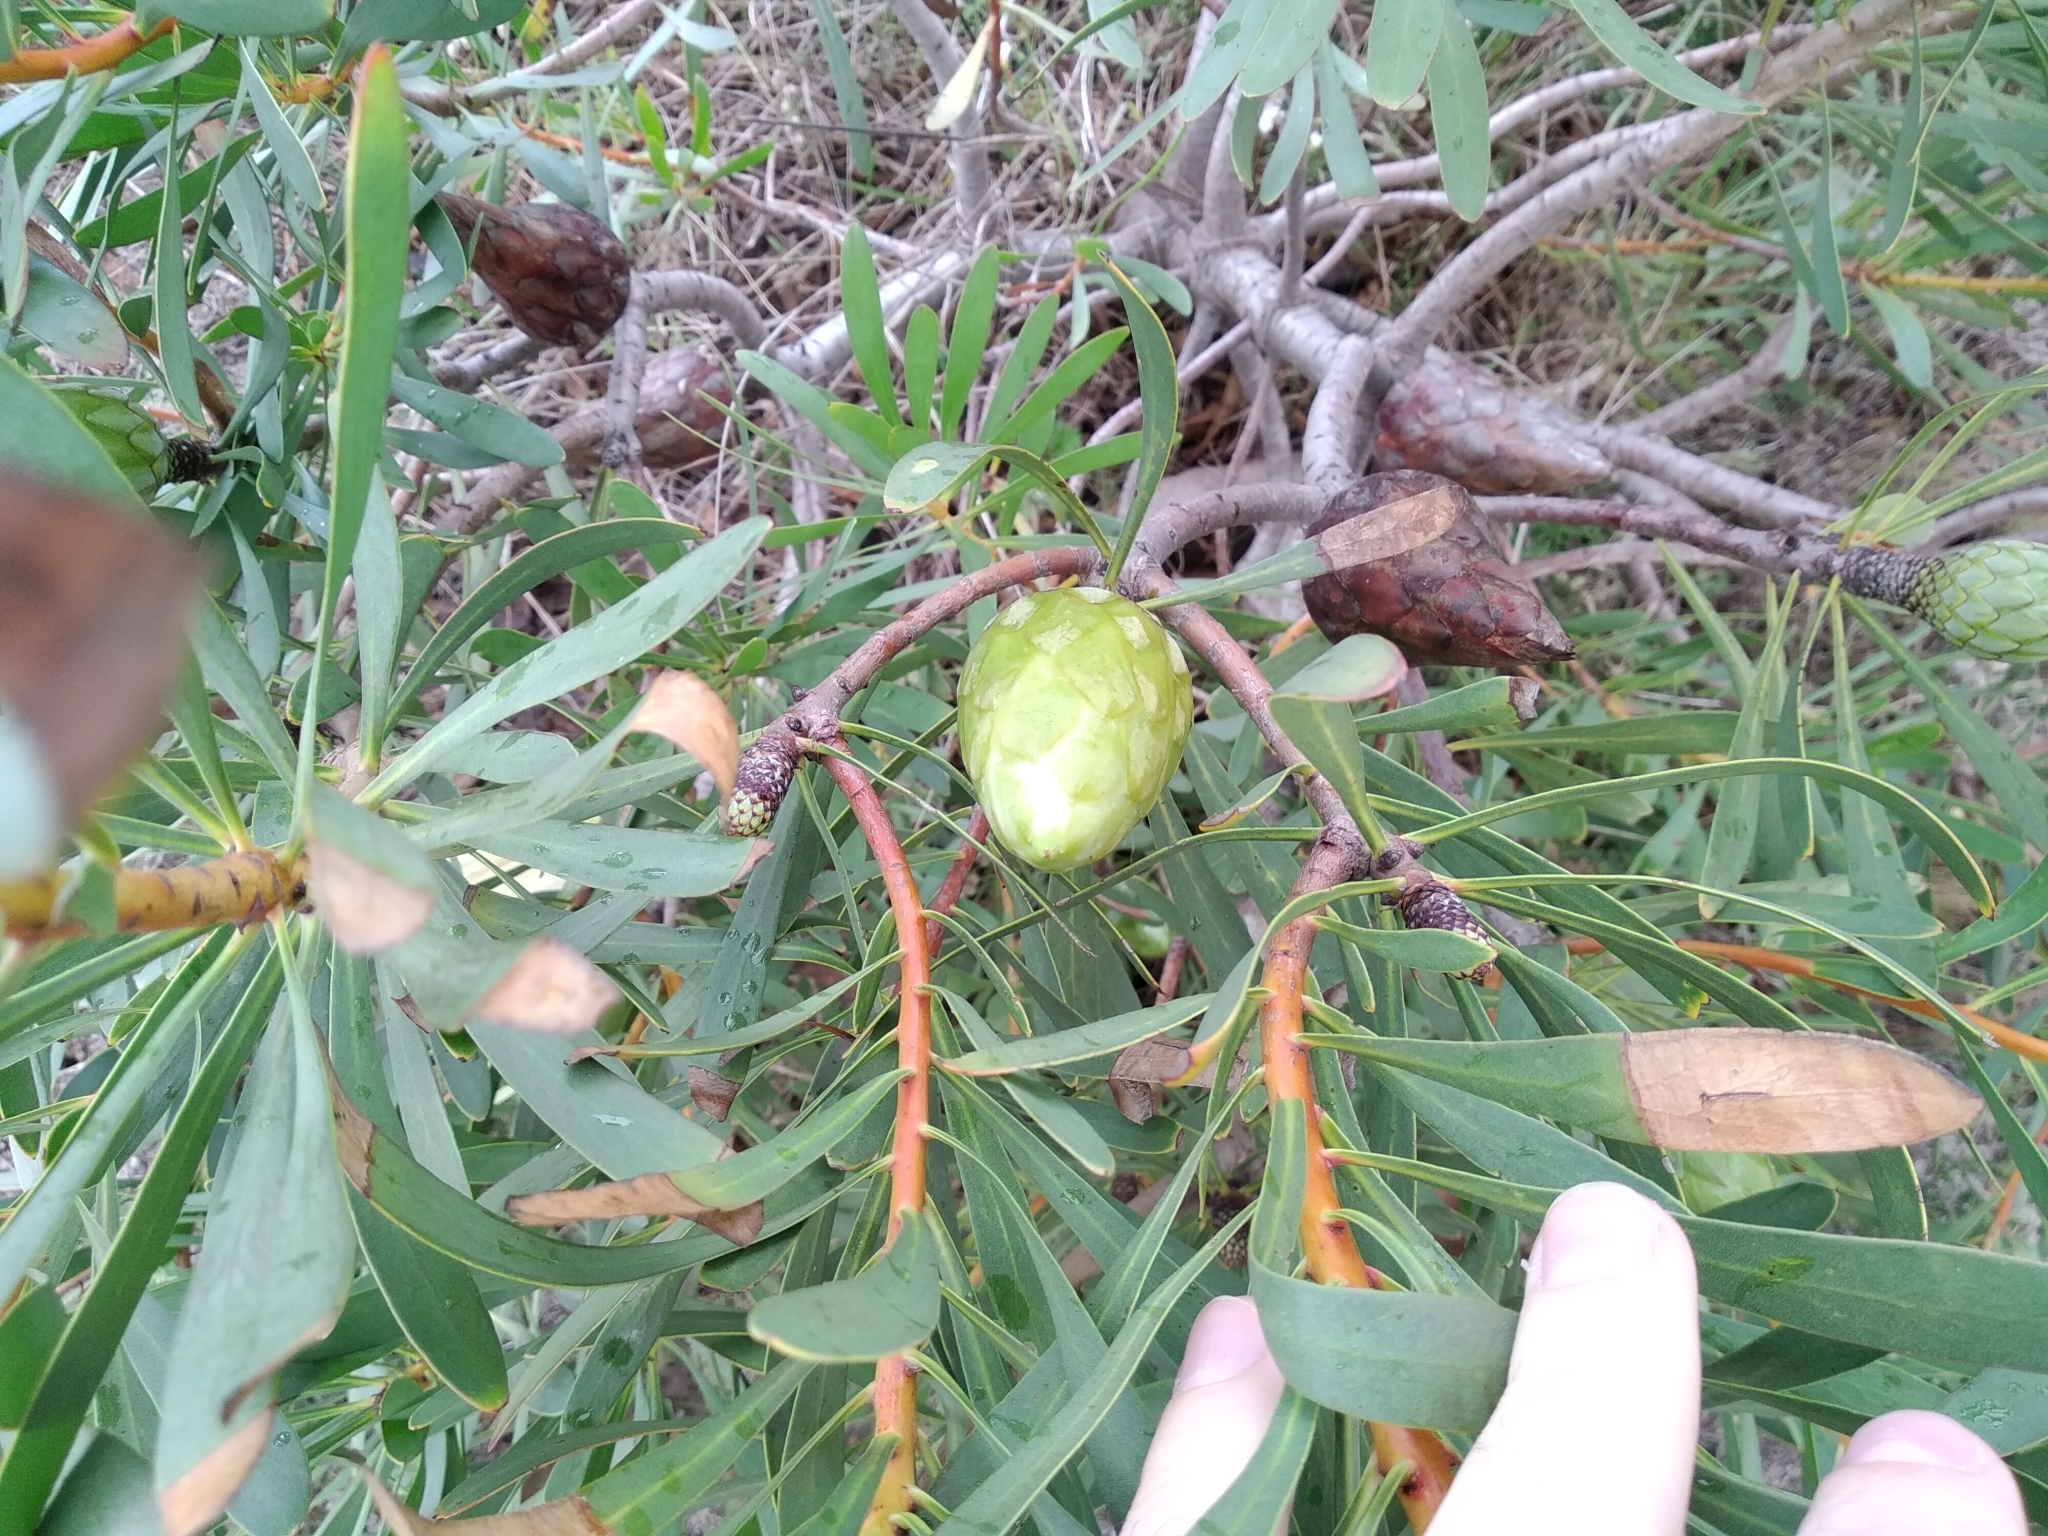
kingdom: Plantae
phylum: Tracheophyta
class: Magnoliopsida
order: Proteales
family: Proteaceae
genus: Protea
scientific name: Protea repens
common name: Sugarbush
